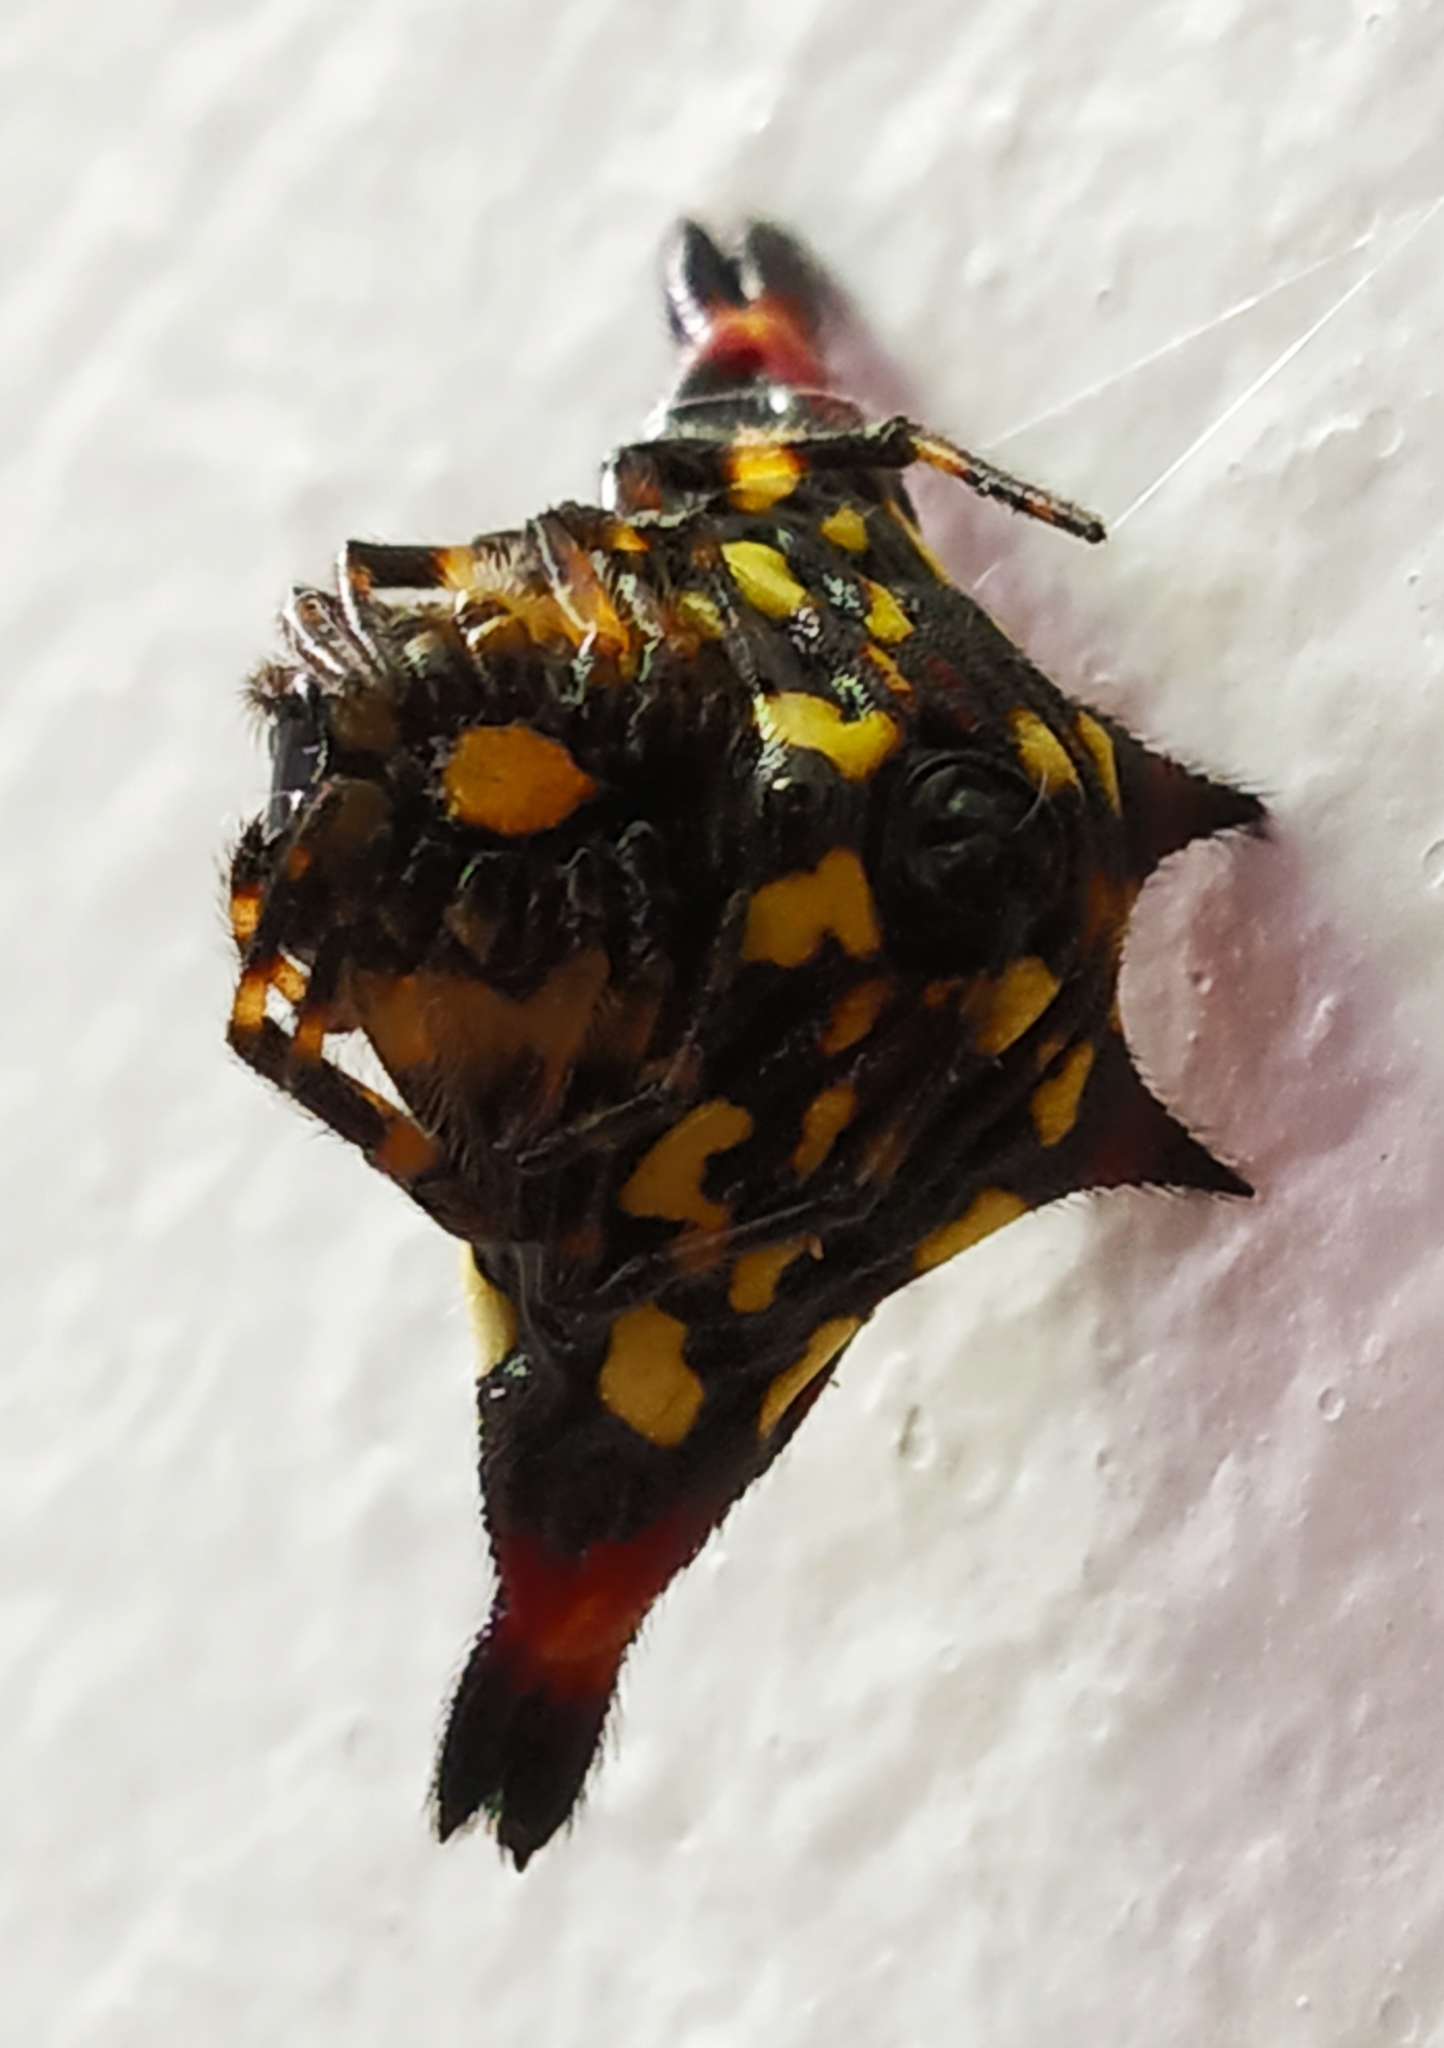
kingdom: Animalia
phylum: Arthropoda
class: Arachnida
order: Araneae
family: Araneidae
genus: Gasteracantha
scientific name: Gasteracantha geminata
